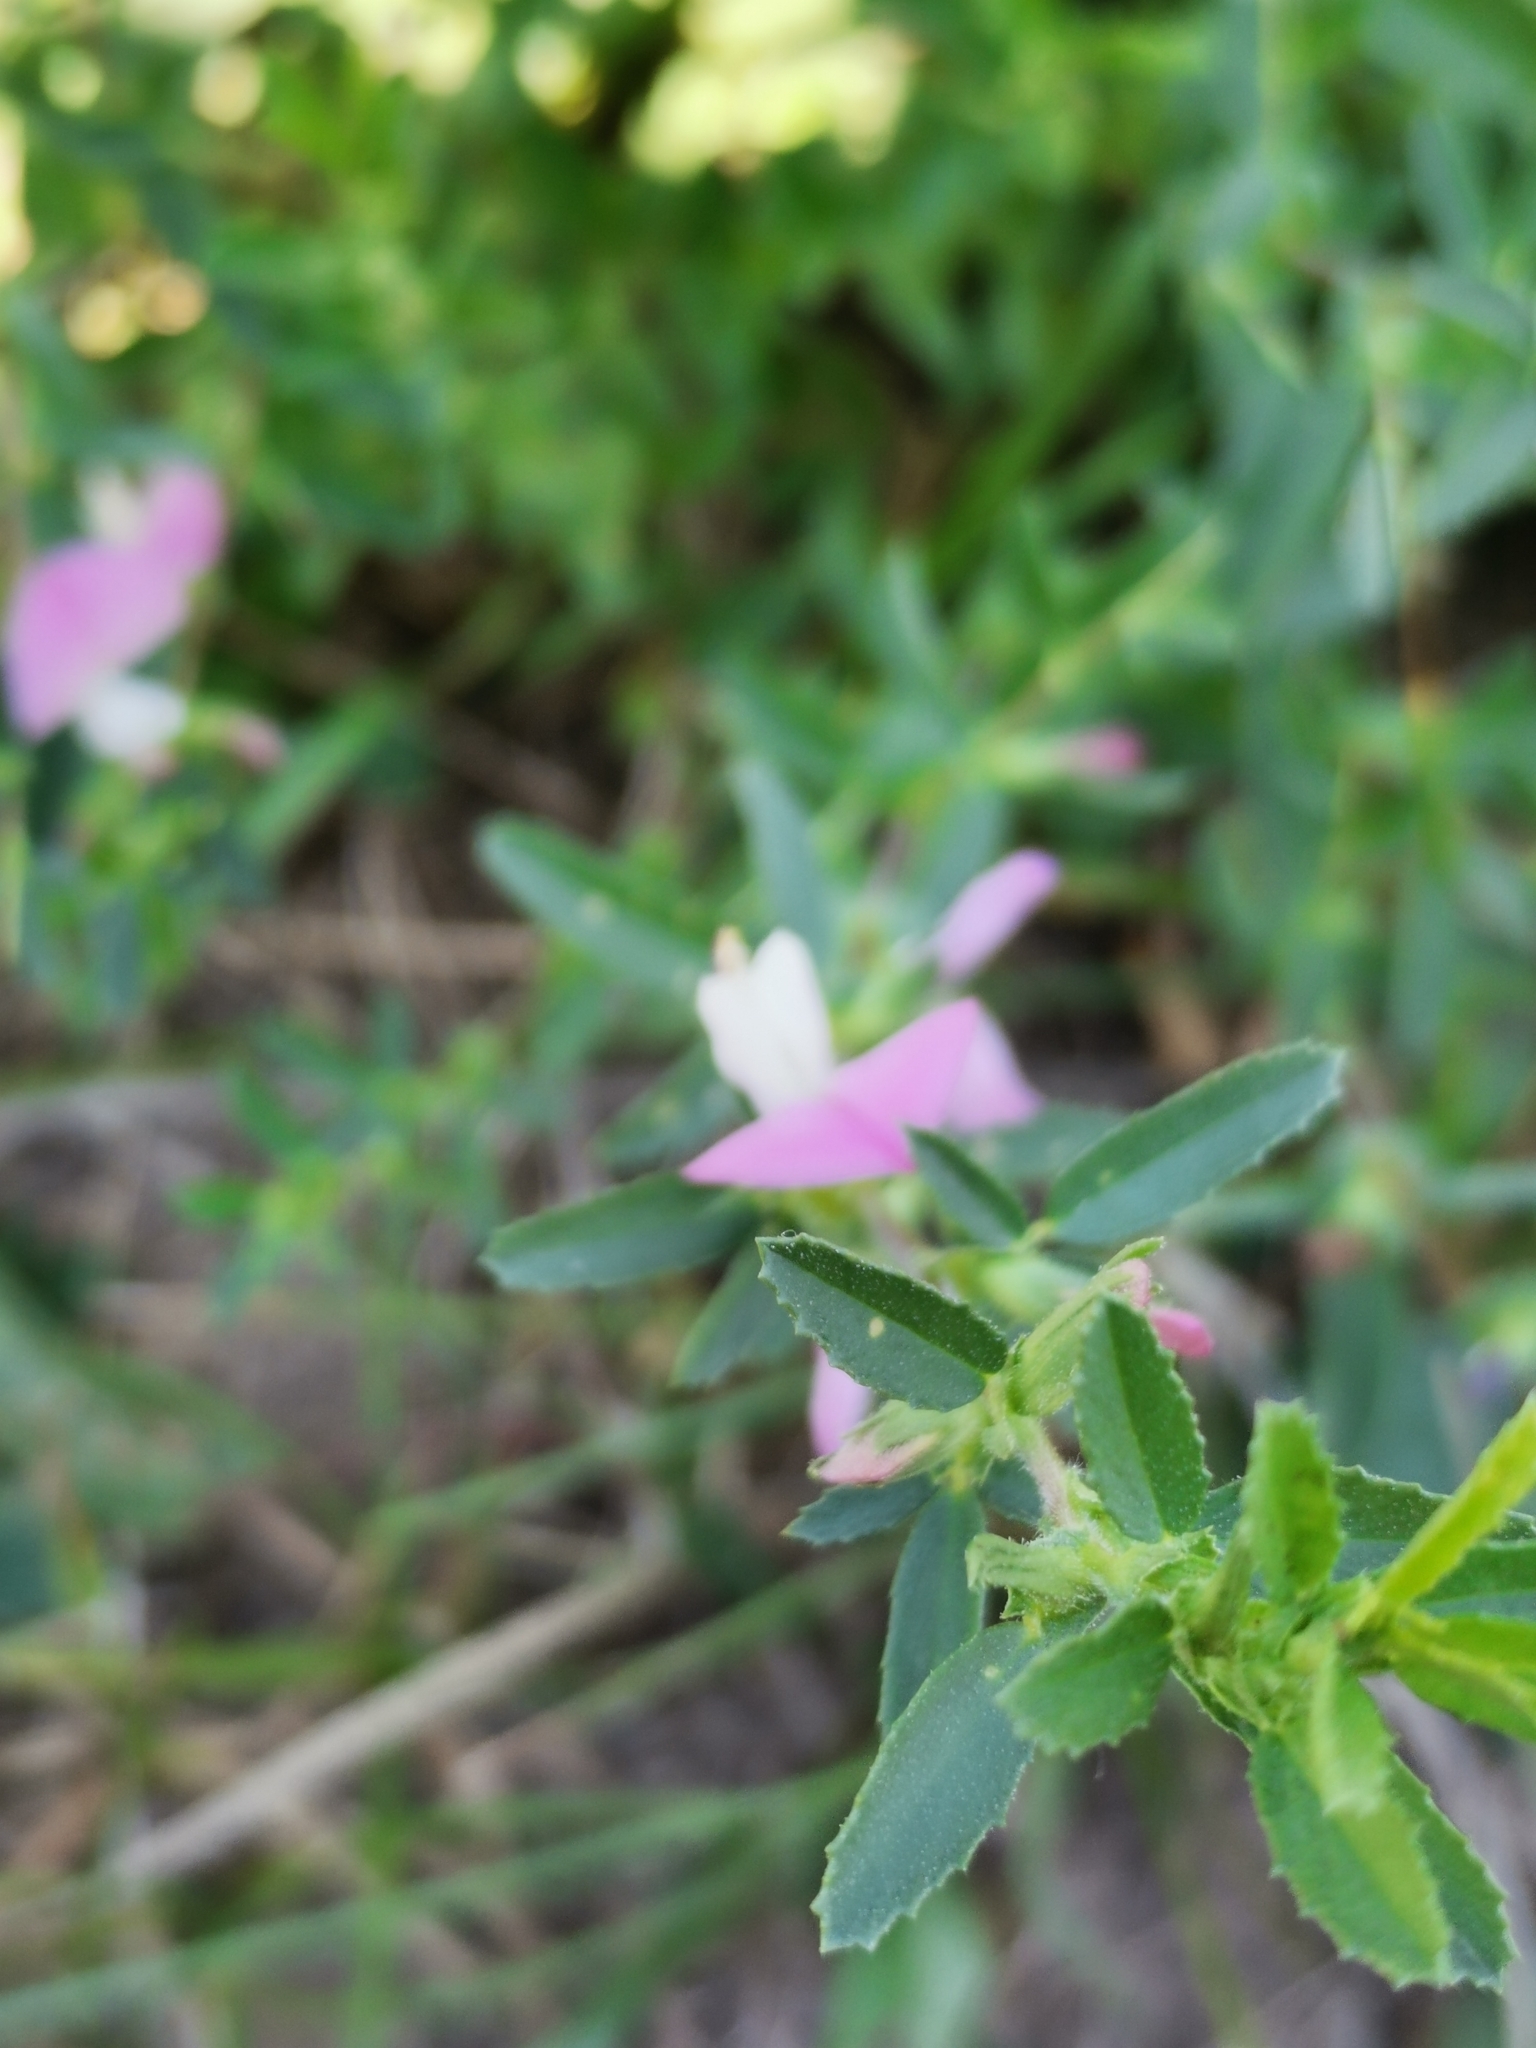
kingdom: Plantae
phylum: Tracheophyta
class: Magnoliopsida
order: Fabales
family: Fabaceae
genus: Ononis
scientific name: Ononis spinosa
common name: Spiny restharrow
